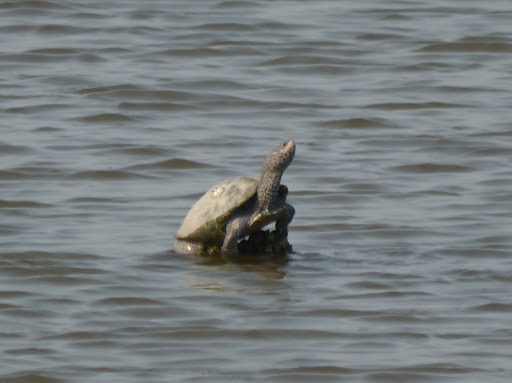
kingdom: Animalia
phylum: Chordata
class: Testudines
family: Emydidae
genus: Malaclemys
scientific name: Malaclemys terrapin
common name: Diamondback terrapin
